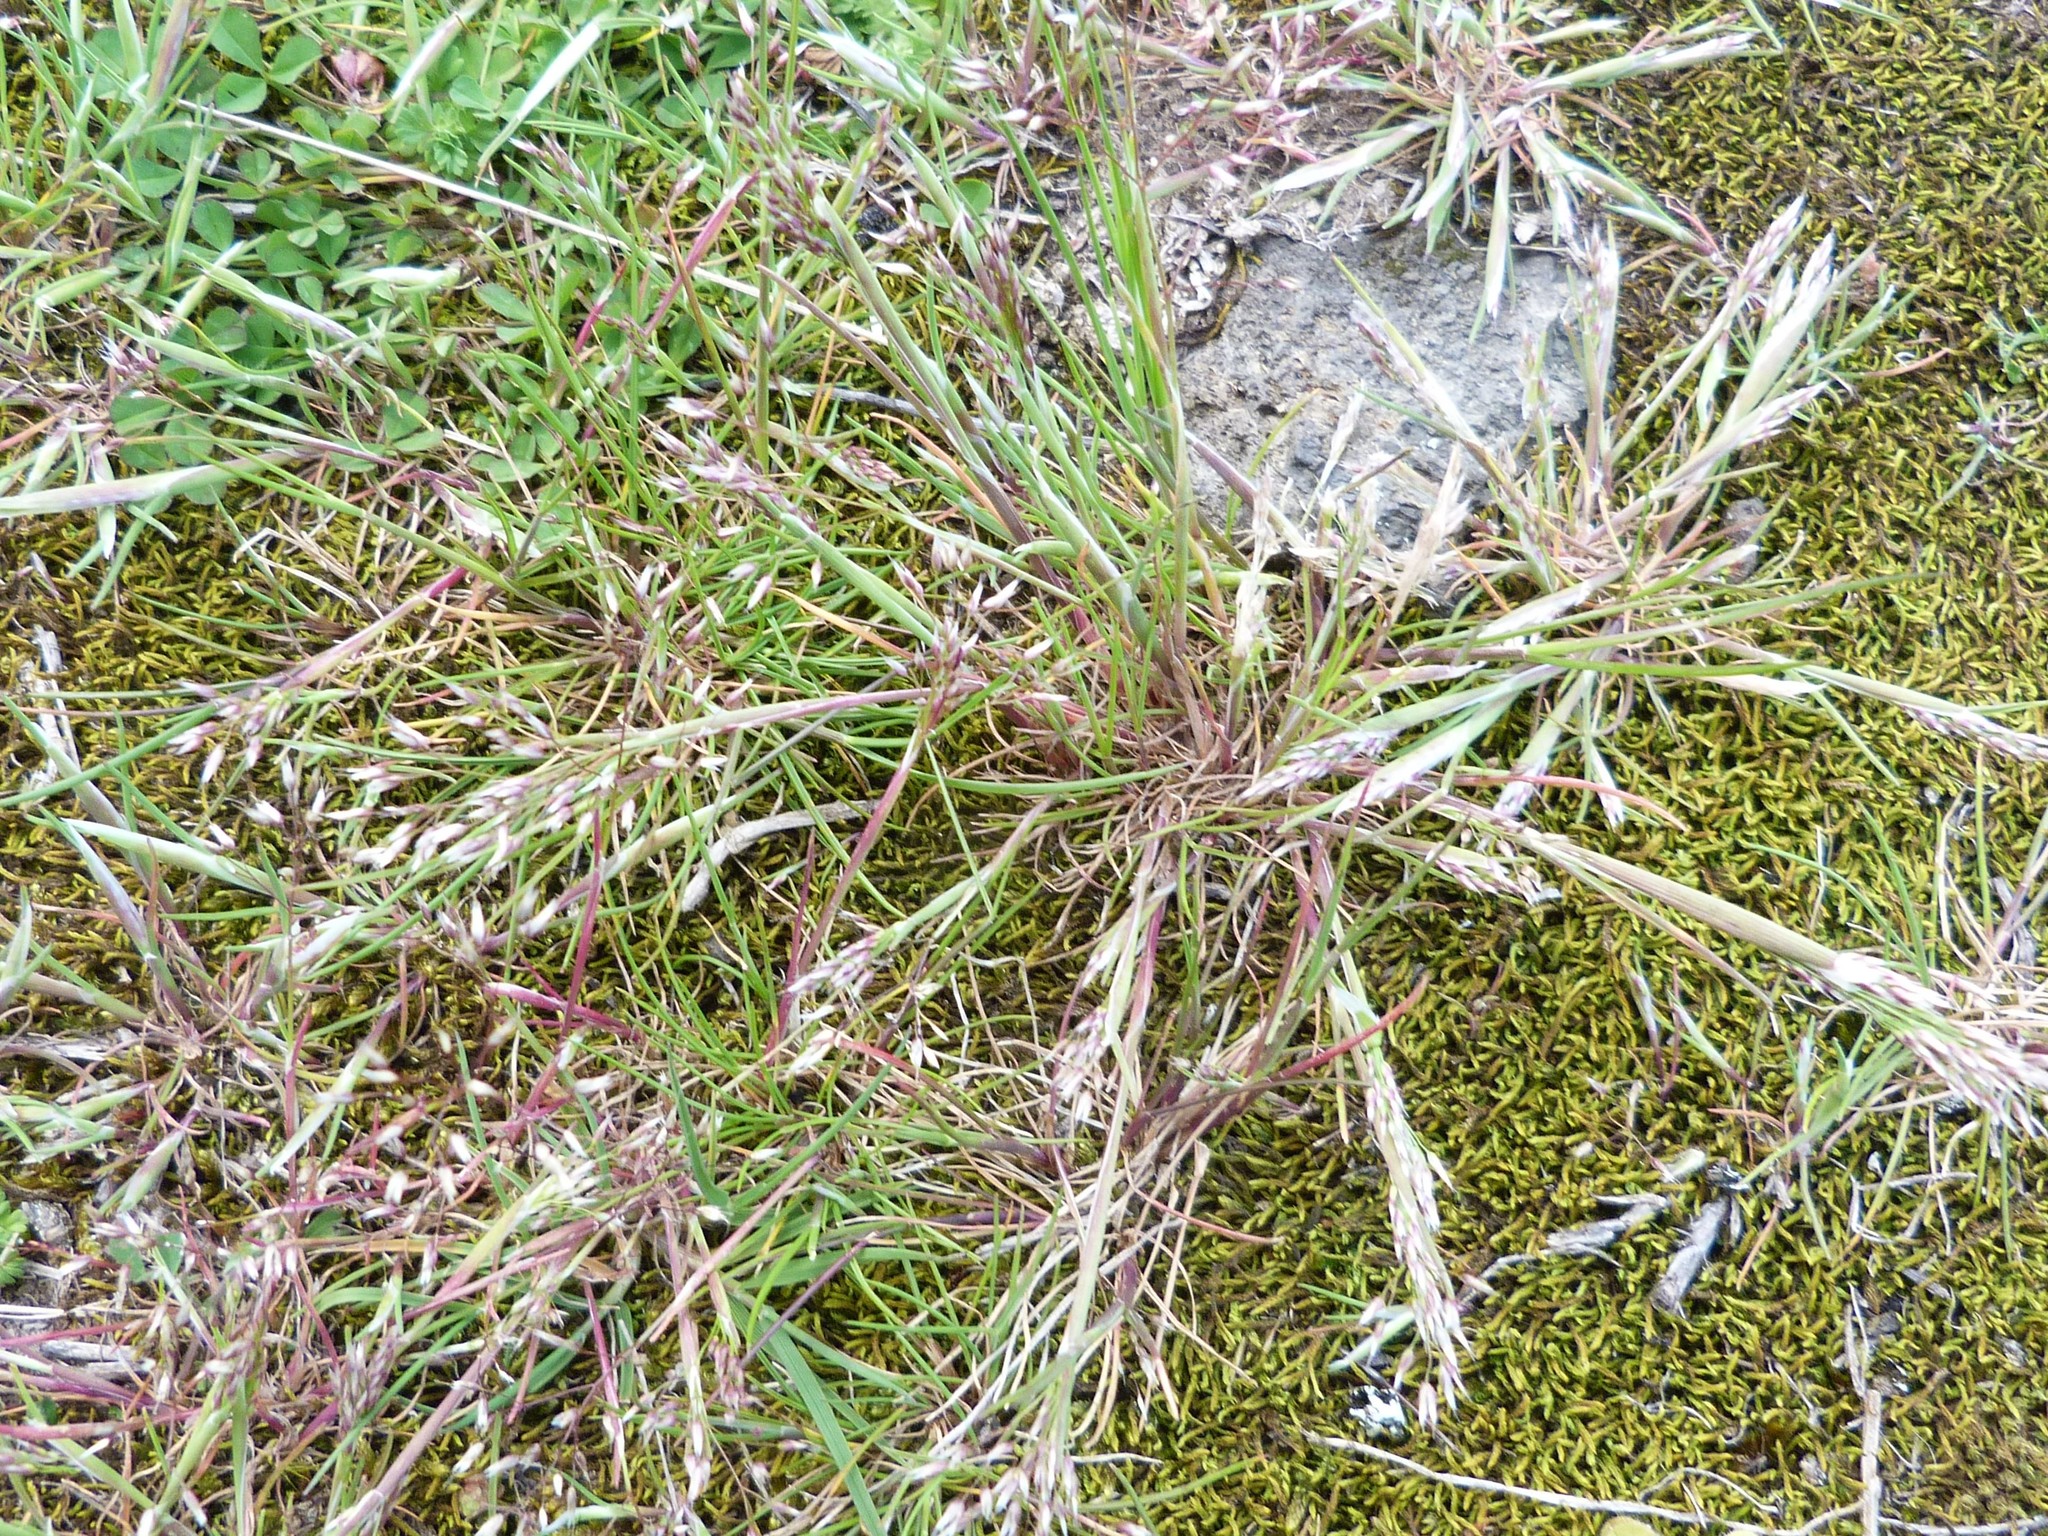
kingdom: Plantae
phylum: Tracheophyta
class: Liliopsida
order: Poales
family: Poaceae
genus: Aira
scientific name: Aira caryophyllea
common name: Silver hairgrass
